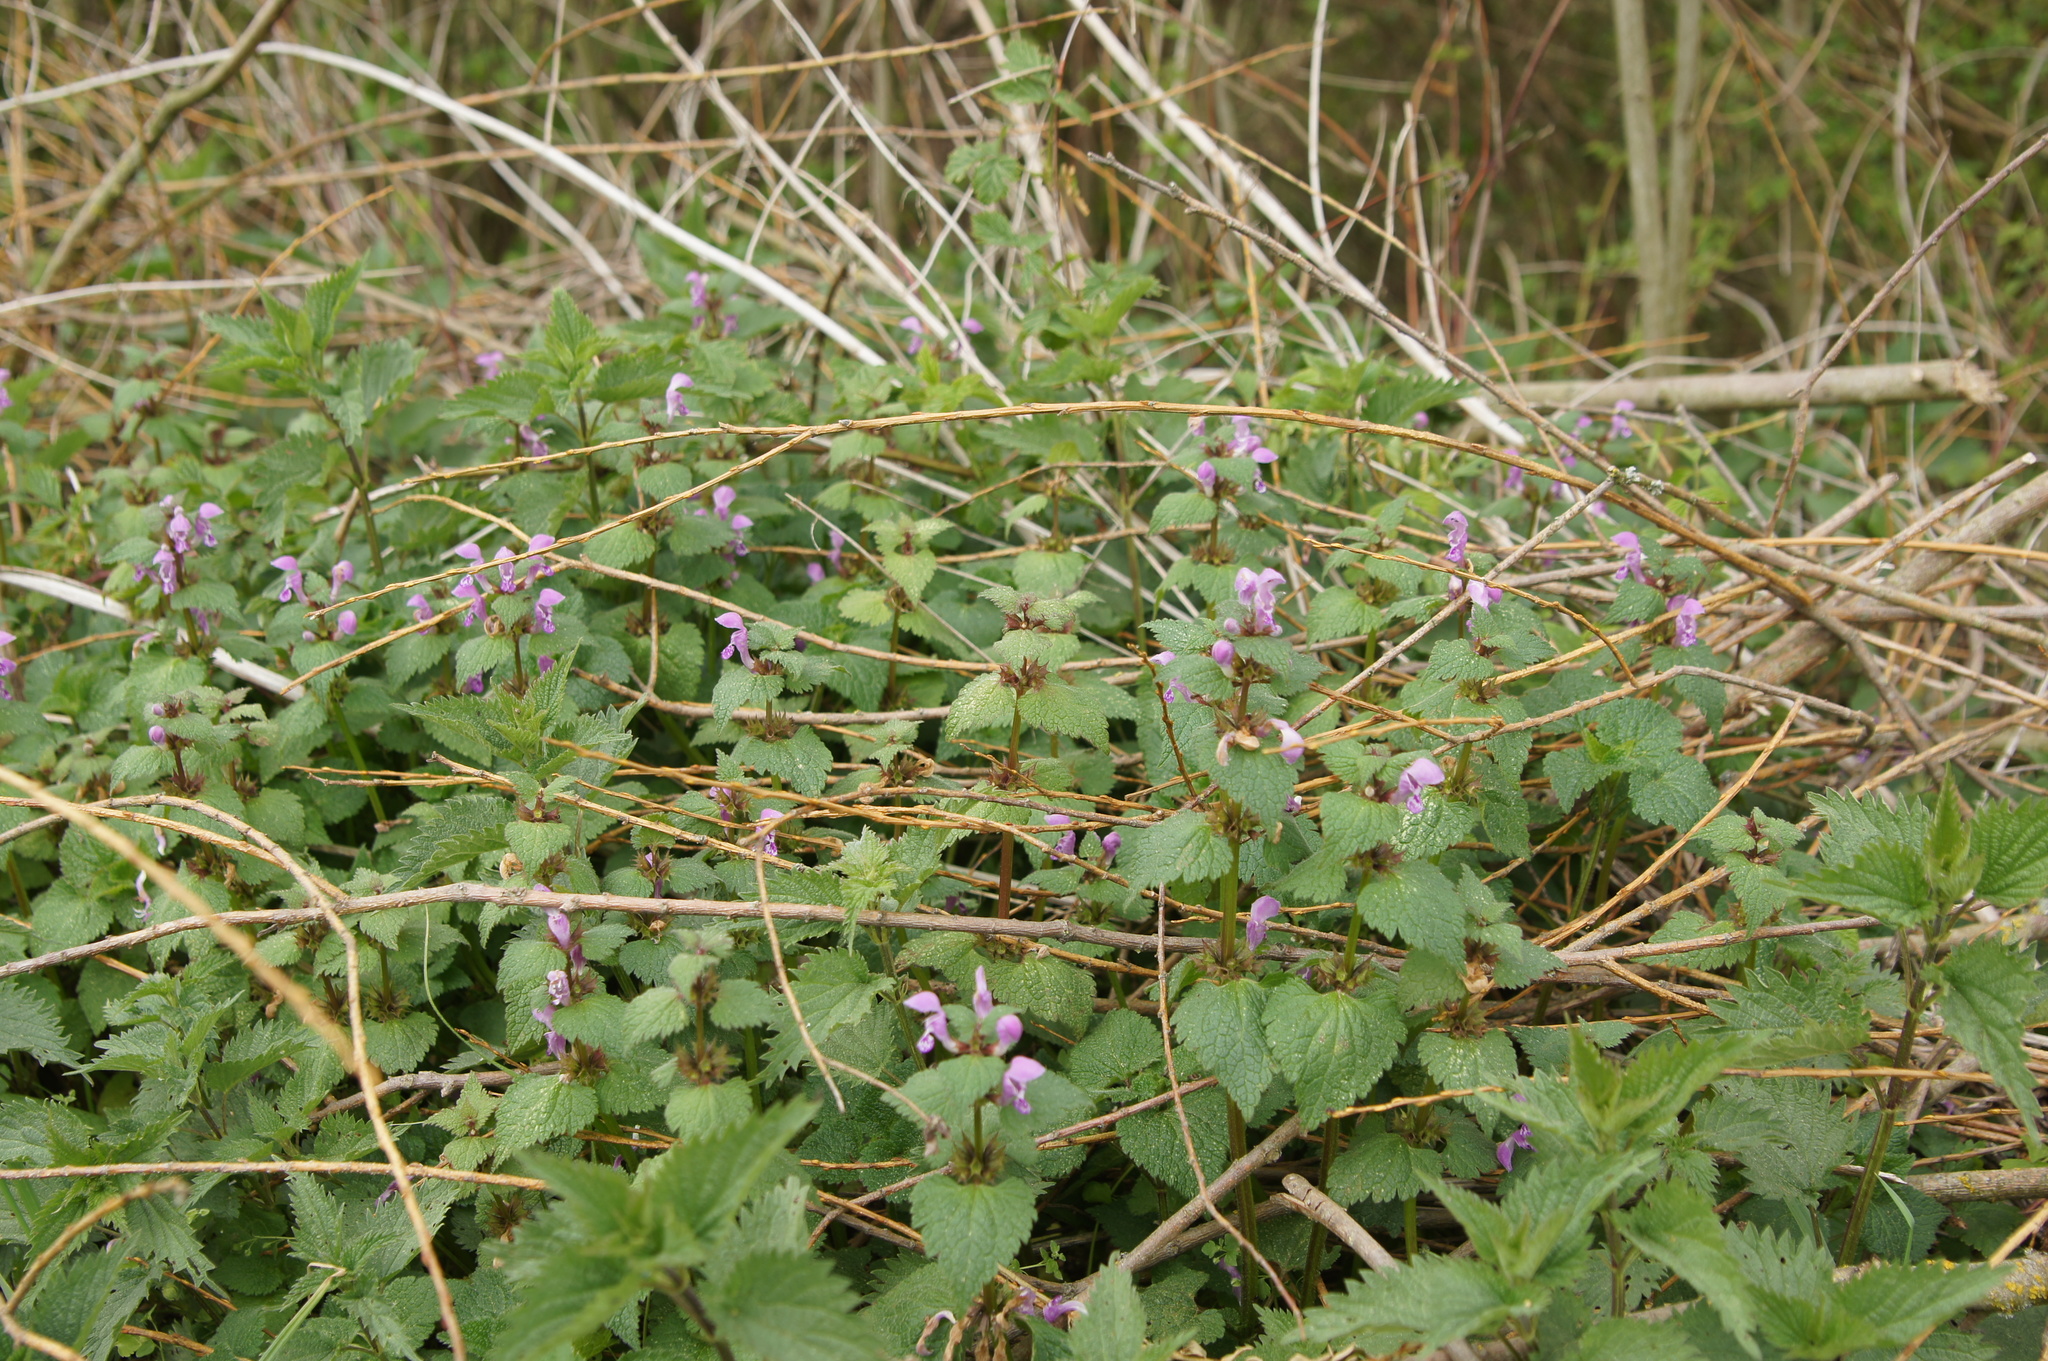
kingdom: Plantae
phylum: Tracheophyta
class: Magnoliopsida
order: Lamiales
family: Lamiaceae
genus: Lamium
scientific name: Lamium maculatum
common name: Spotted dead-nettle
